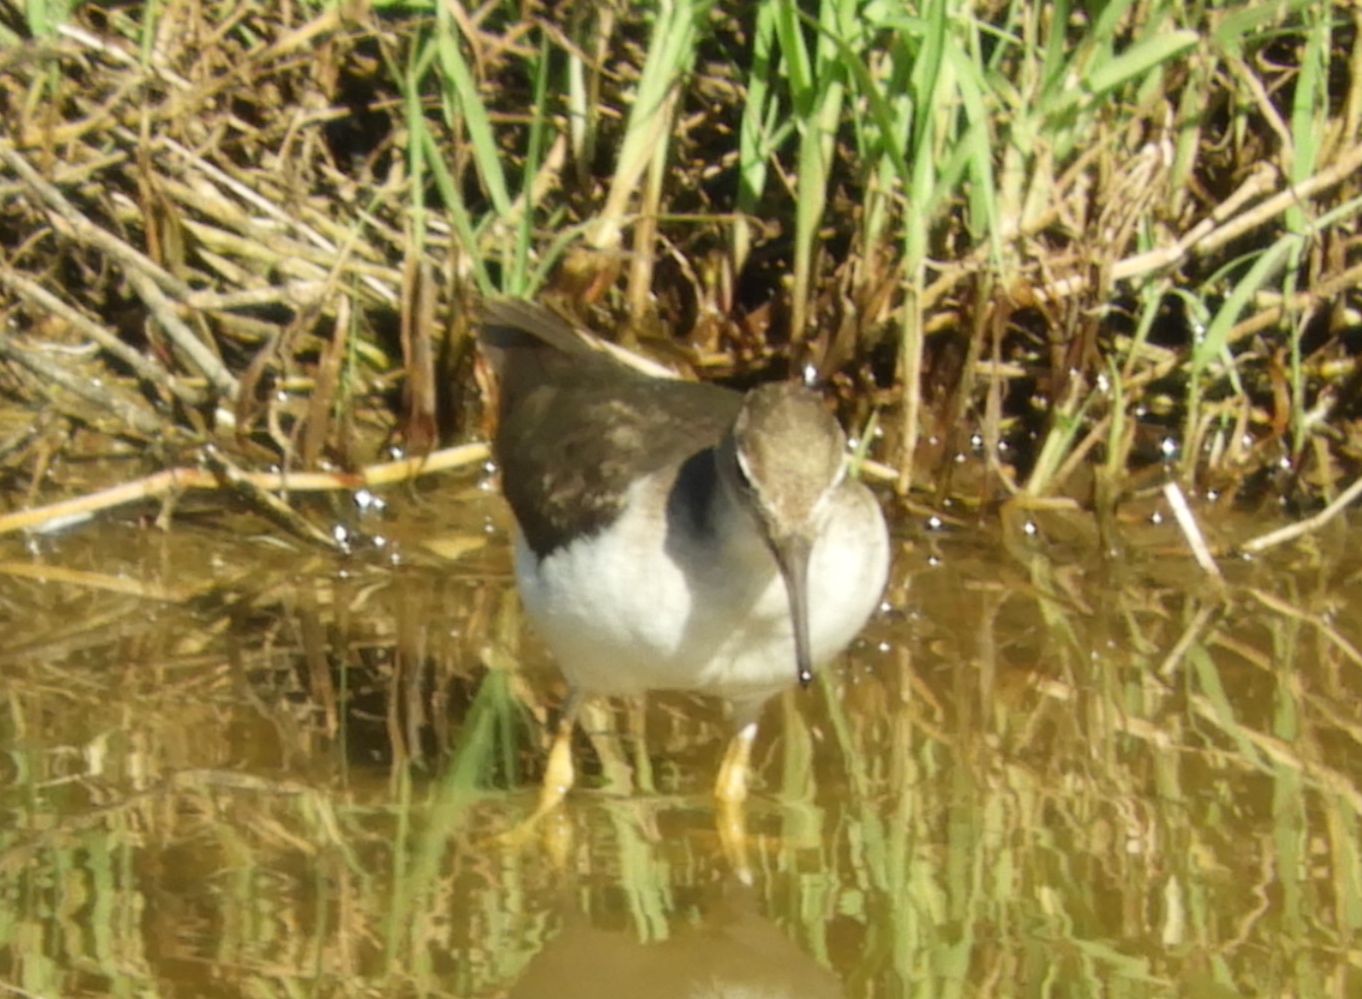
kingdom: Animalia
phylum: Chordata
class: Aves
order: Charadriiformes
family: Scolopacidae
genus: Actitis
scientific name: Actitis macularius
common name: Spotted sandpiper
